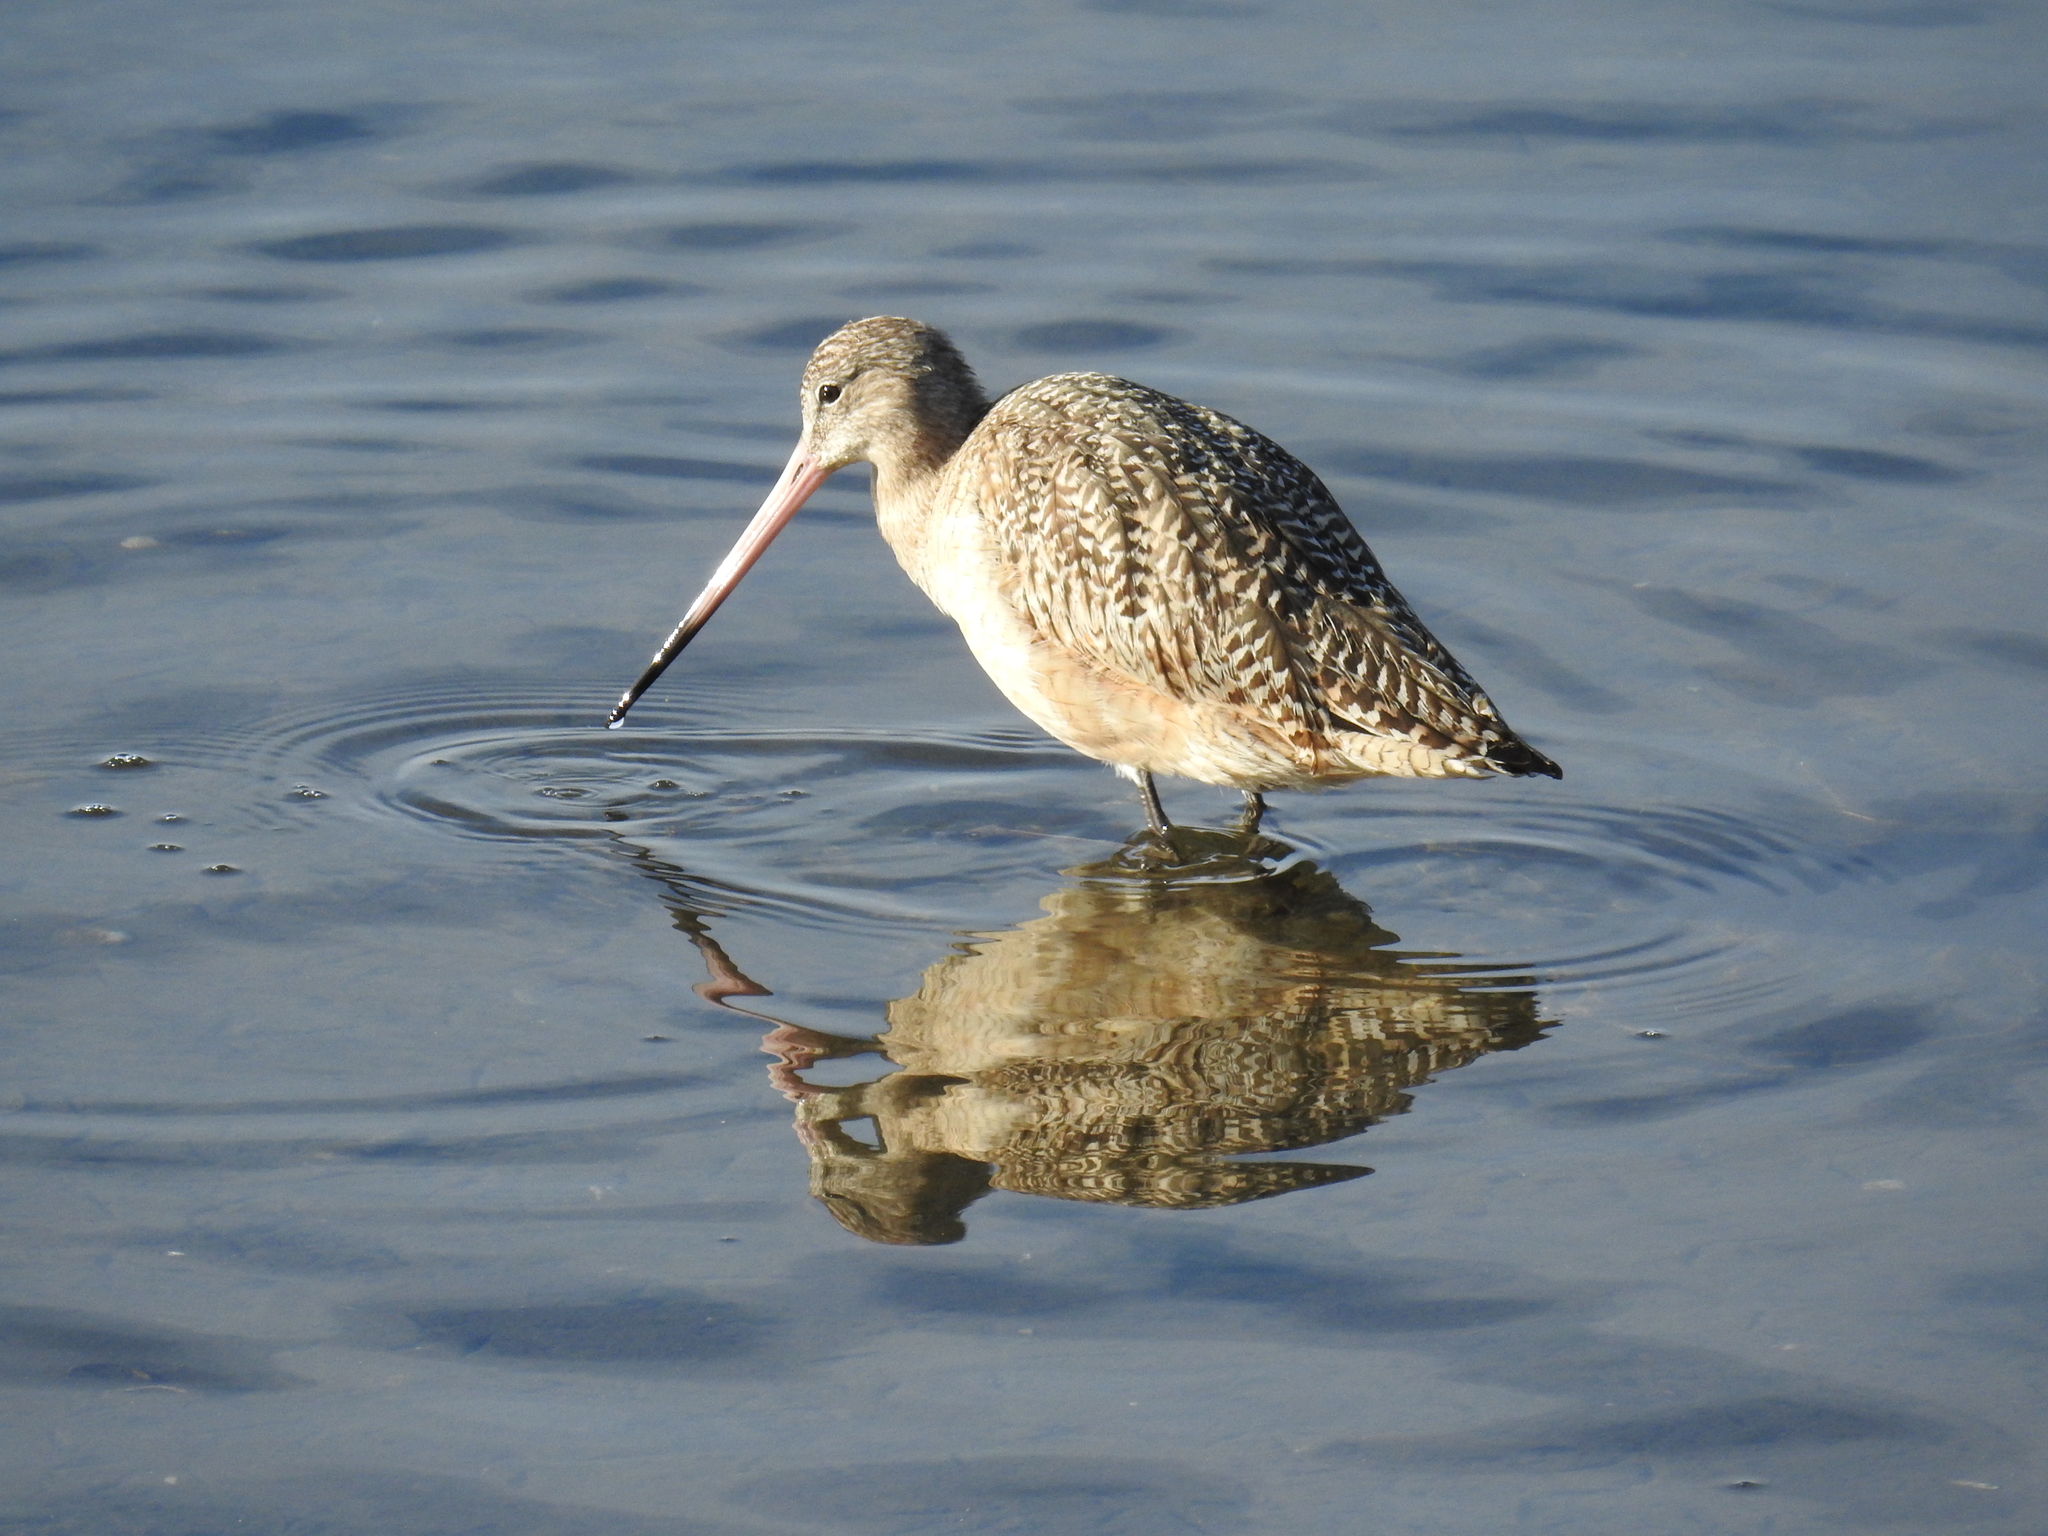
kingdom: Animalia
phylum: Chordata
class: Aves
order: Charadriiformes
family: Scolopacidae
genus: Limosa
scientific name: Limosa fedoa
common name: Marbled godwit
